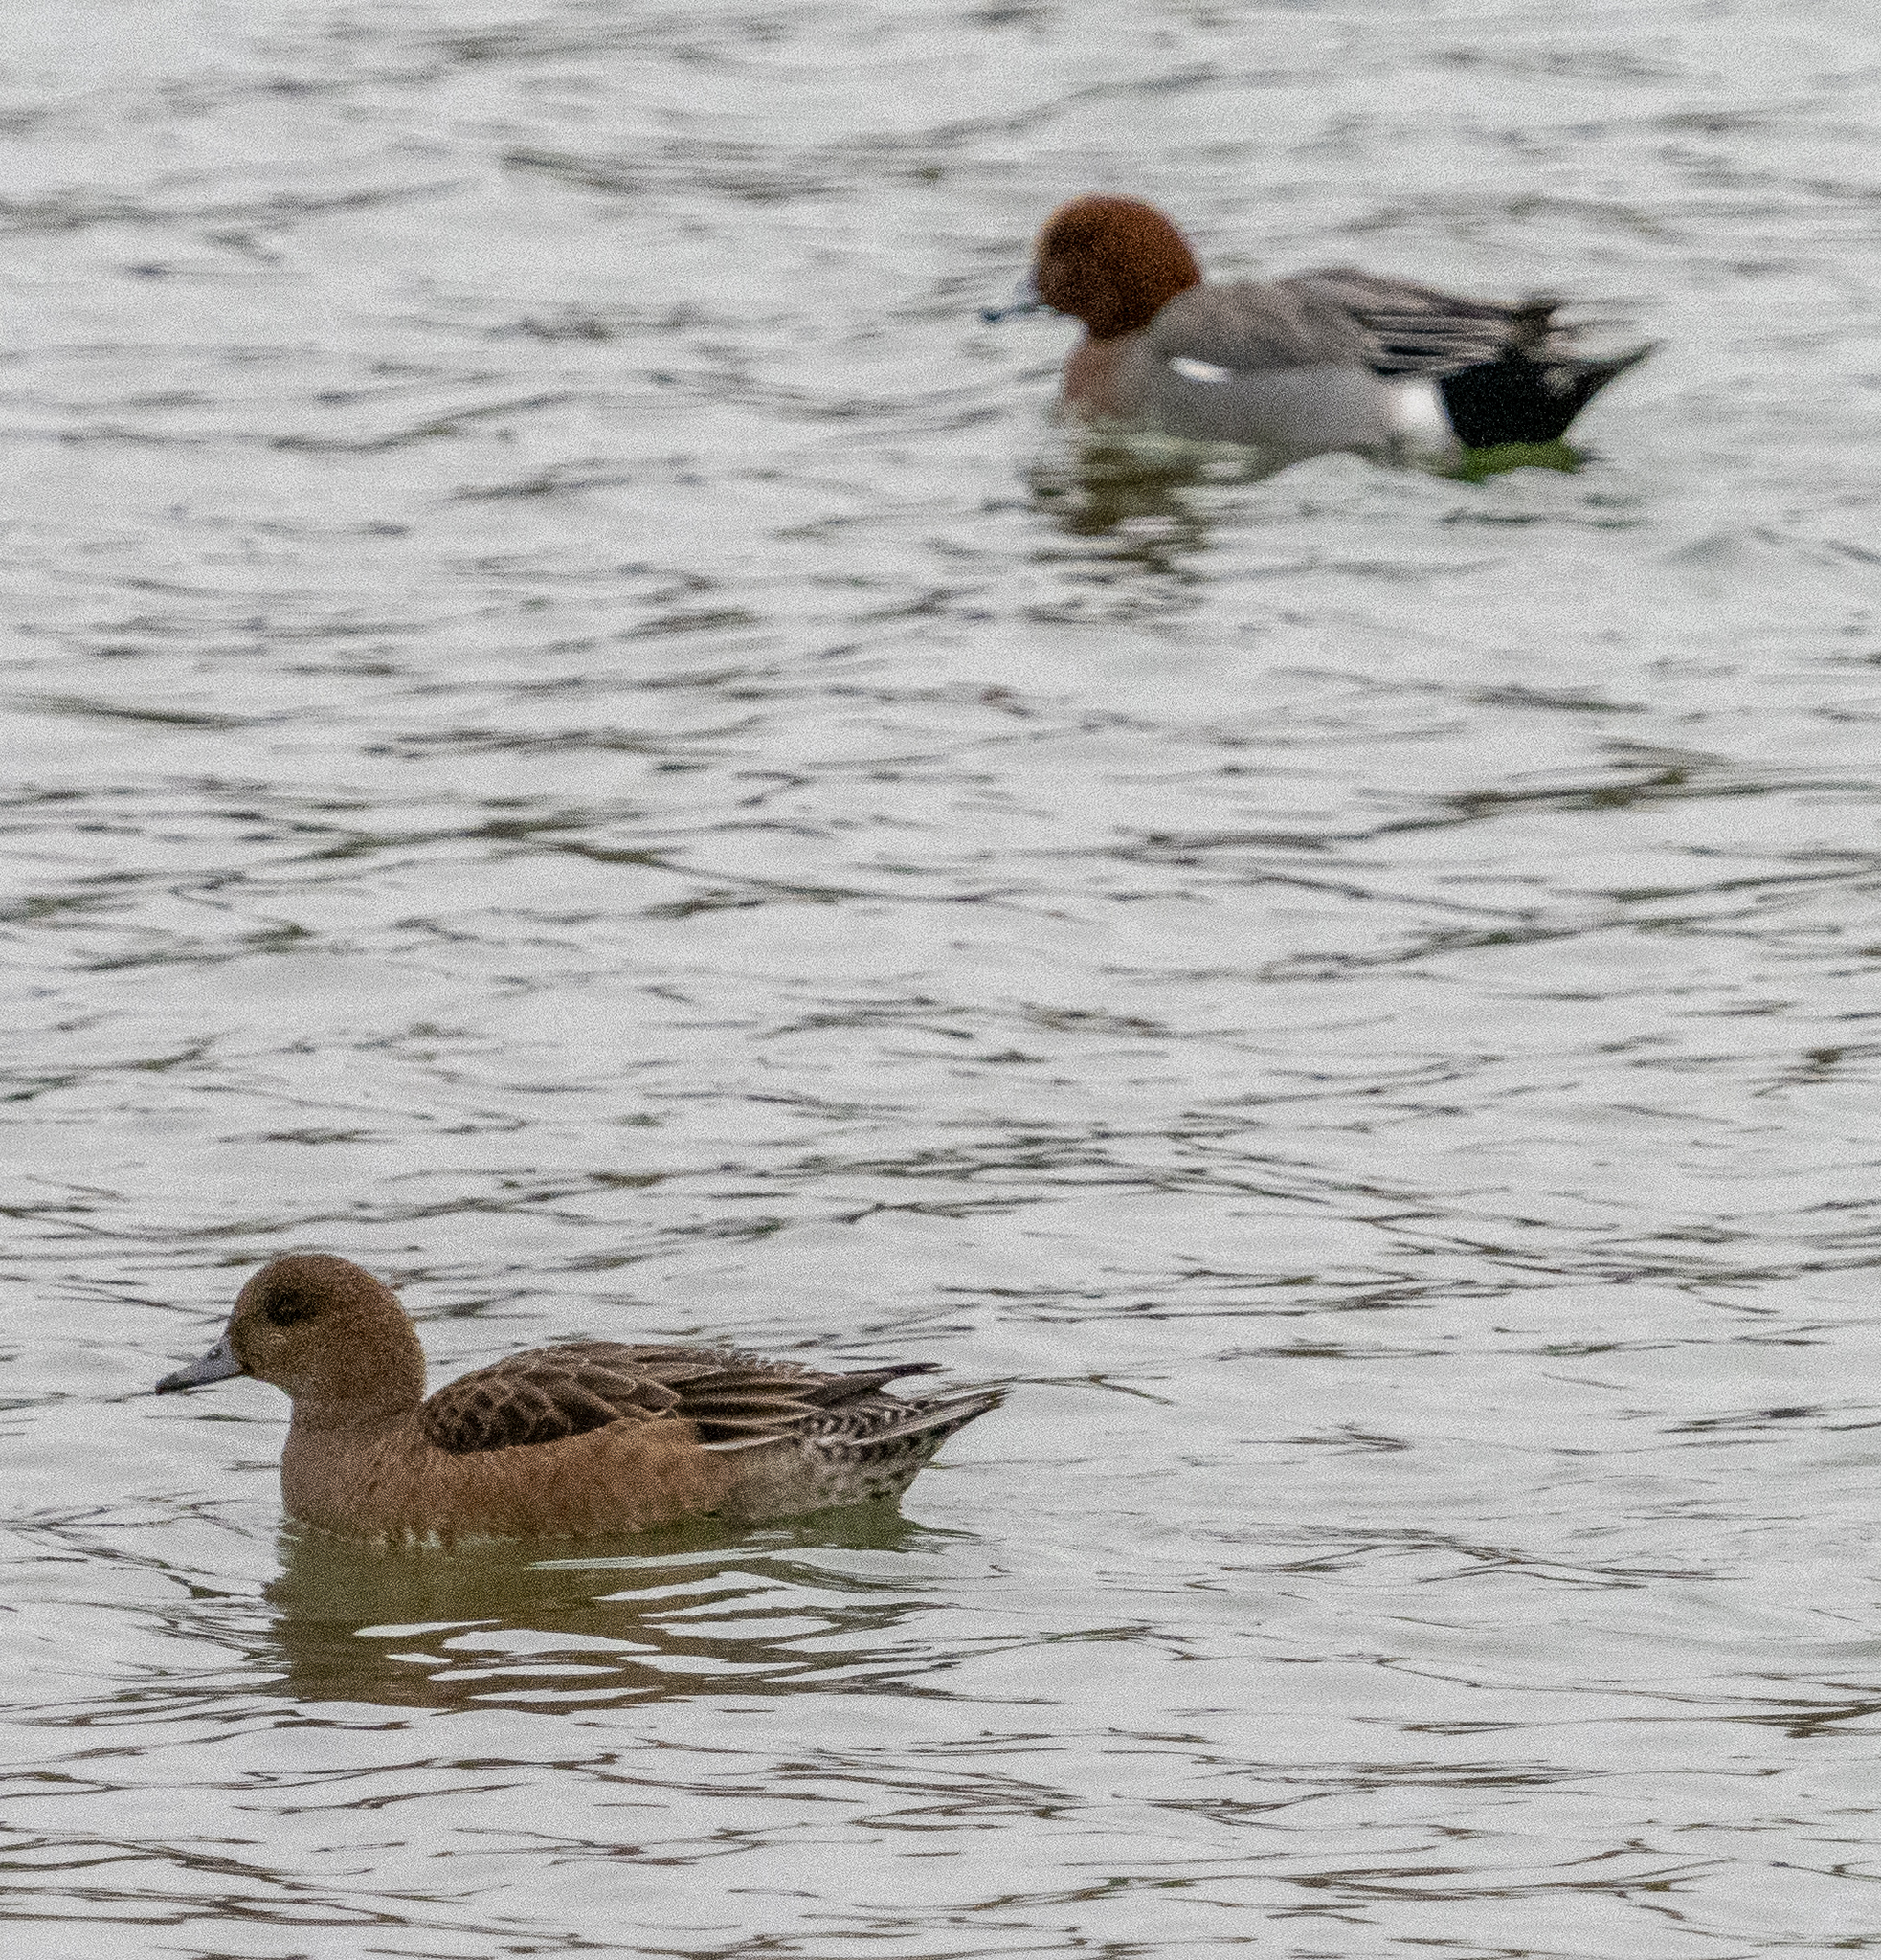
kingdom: Animalia
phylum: Chordata
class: Aves
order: Anseriformes
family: Anatidae
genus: Mareca
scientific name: Mareca penelope
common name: Eurasian wigeon
